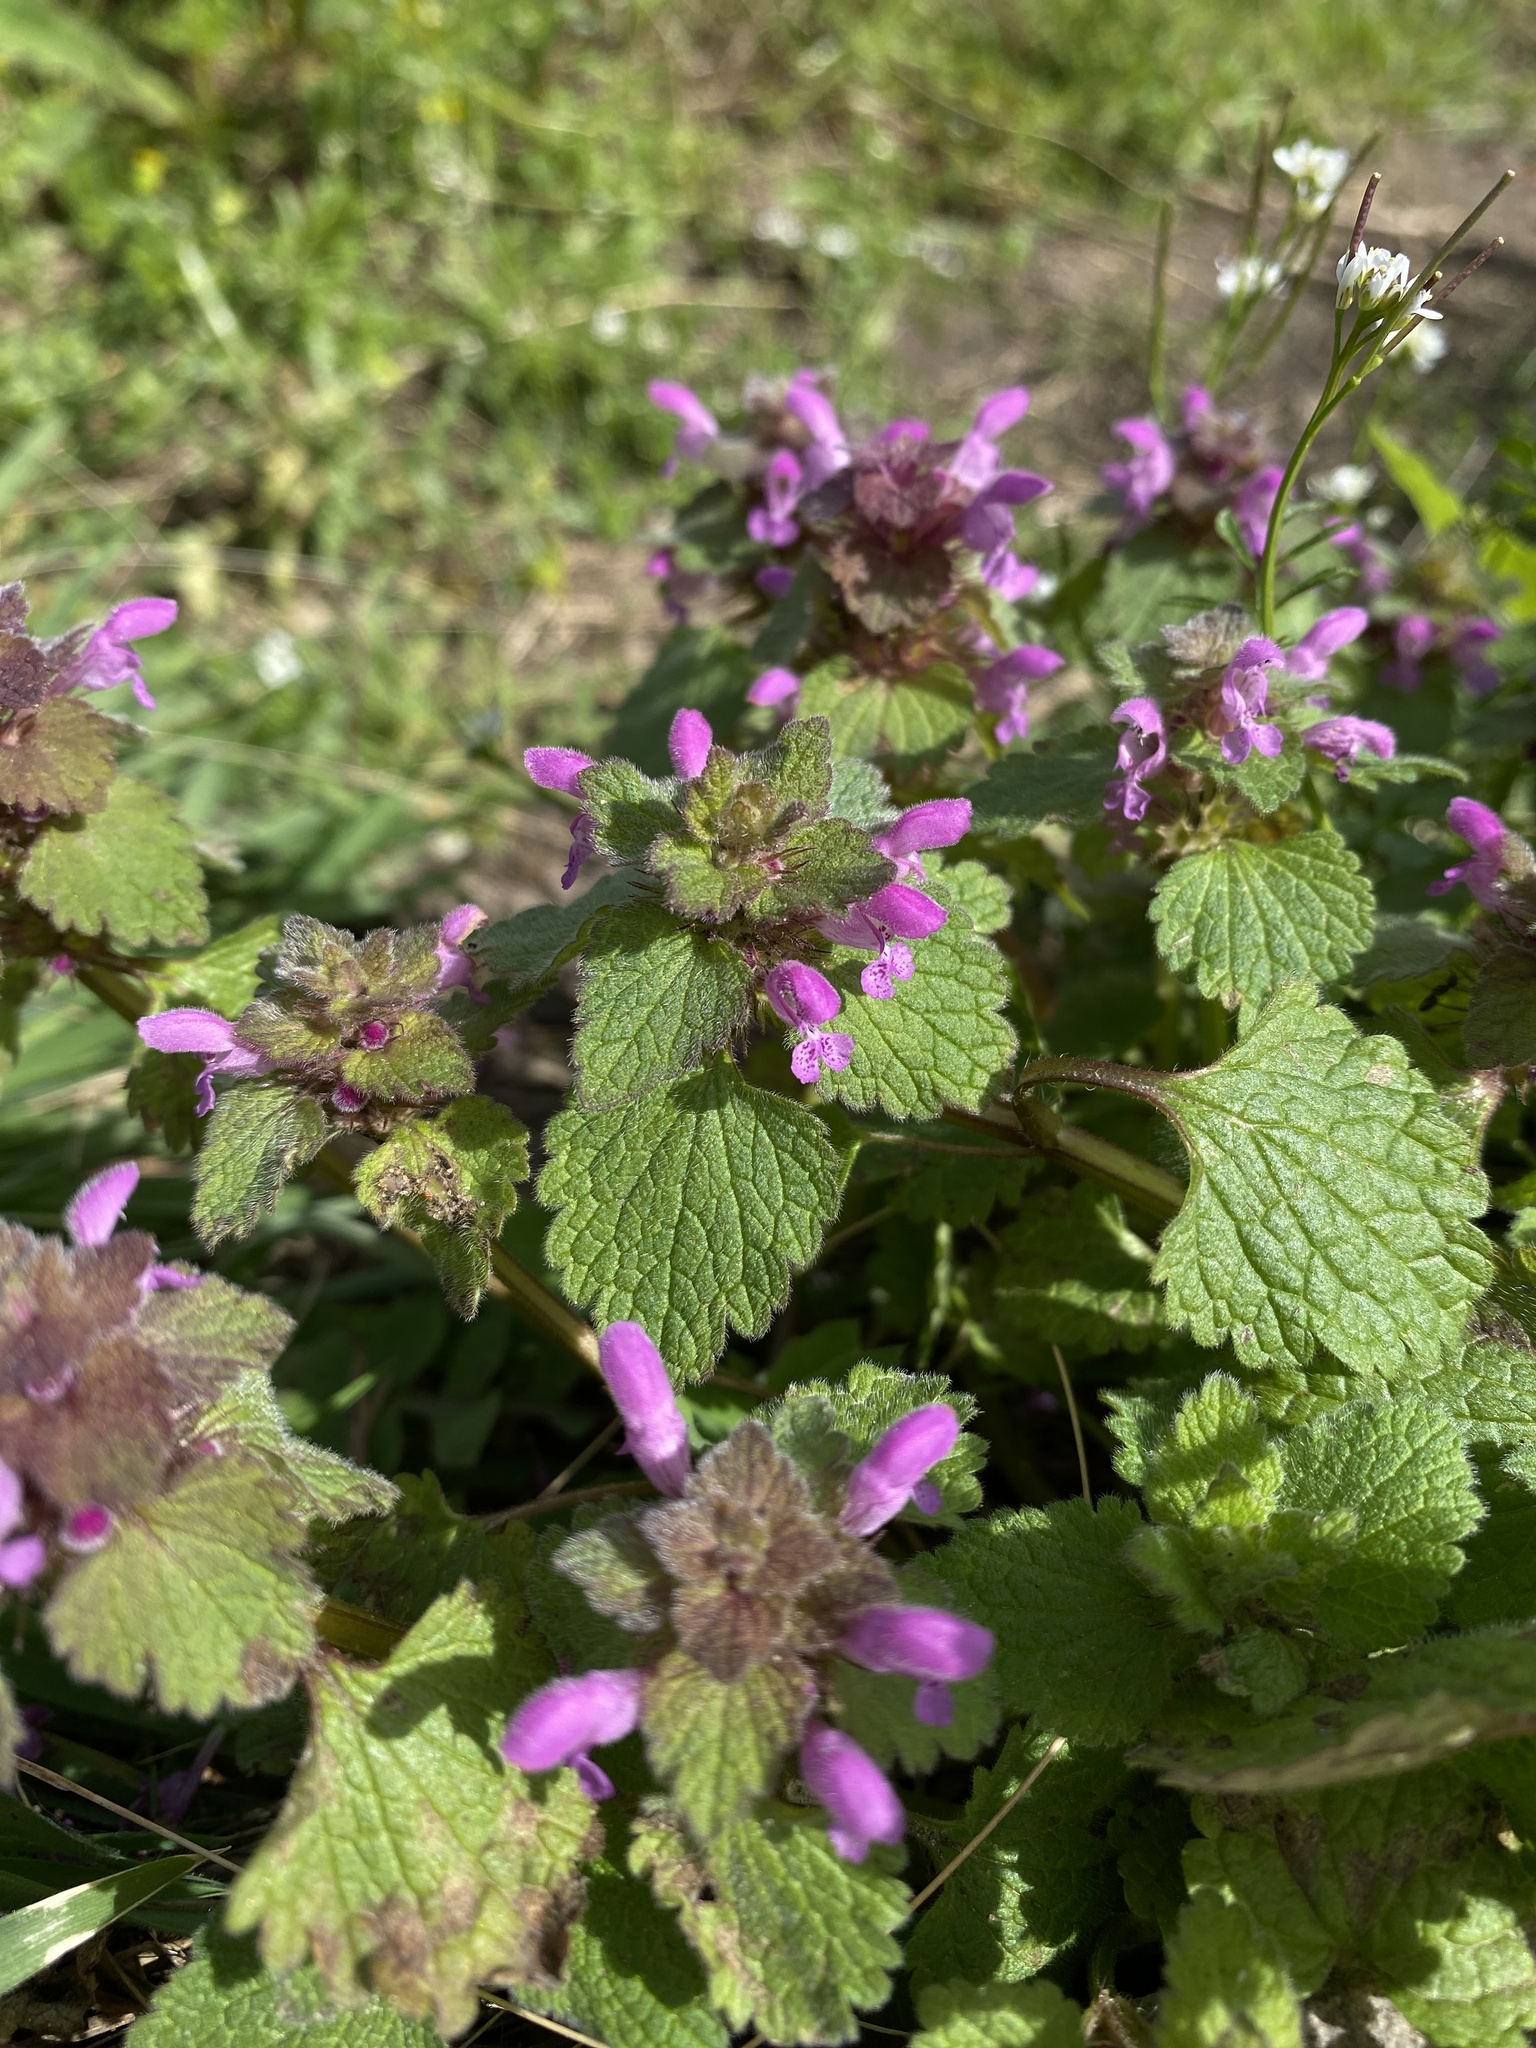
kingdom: Plantae
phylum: Tracheophyta
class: Magnoliopsida
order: Lamiales
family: Lamiaceae
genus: Lamium
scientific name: Lamium purpureum
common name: Red dead-nettle
